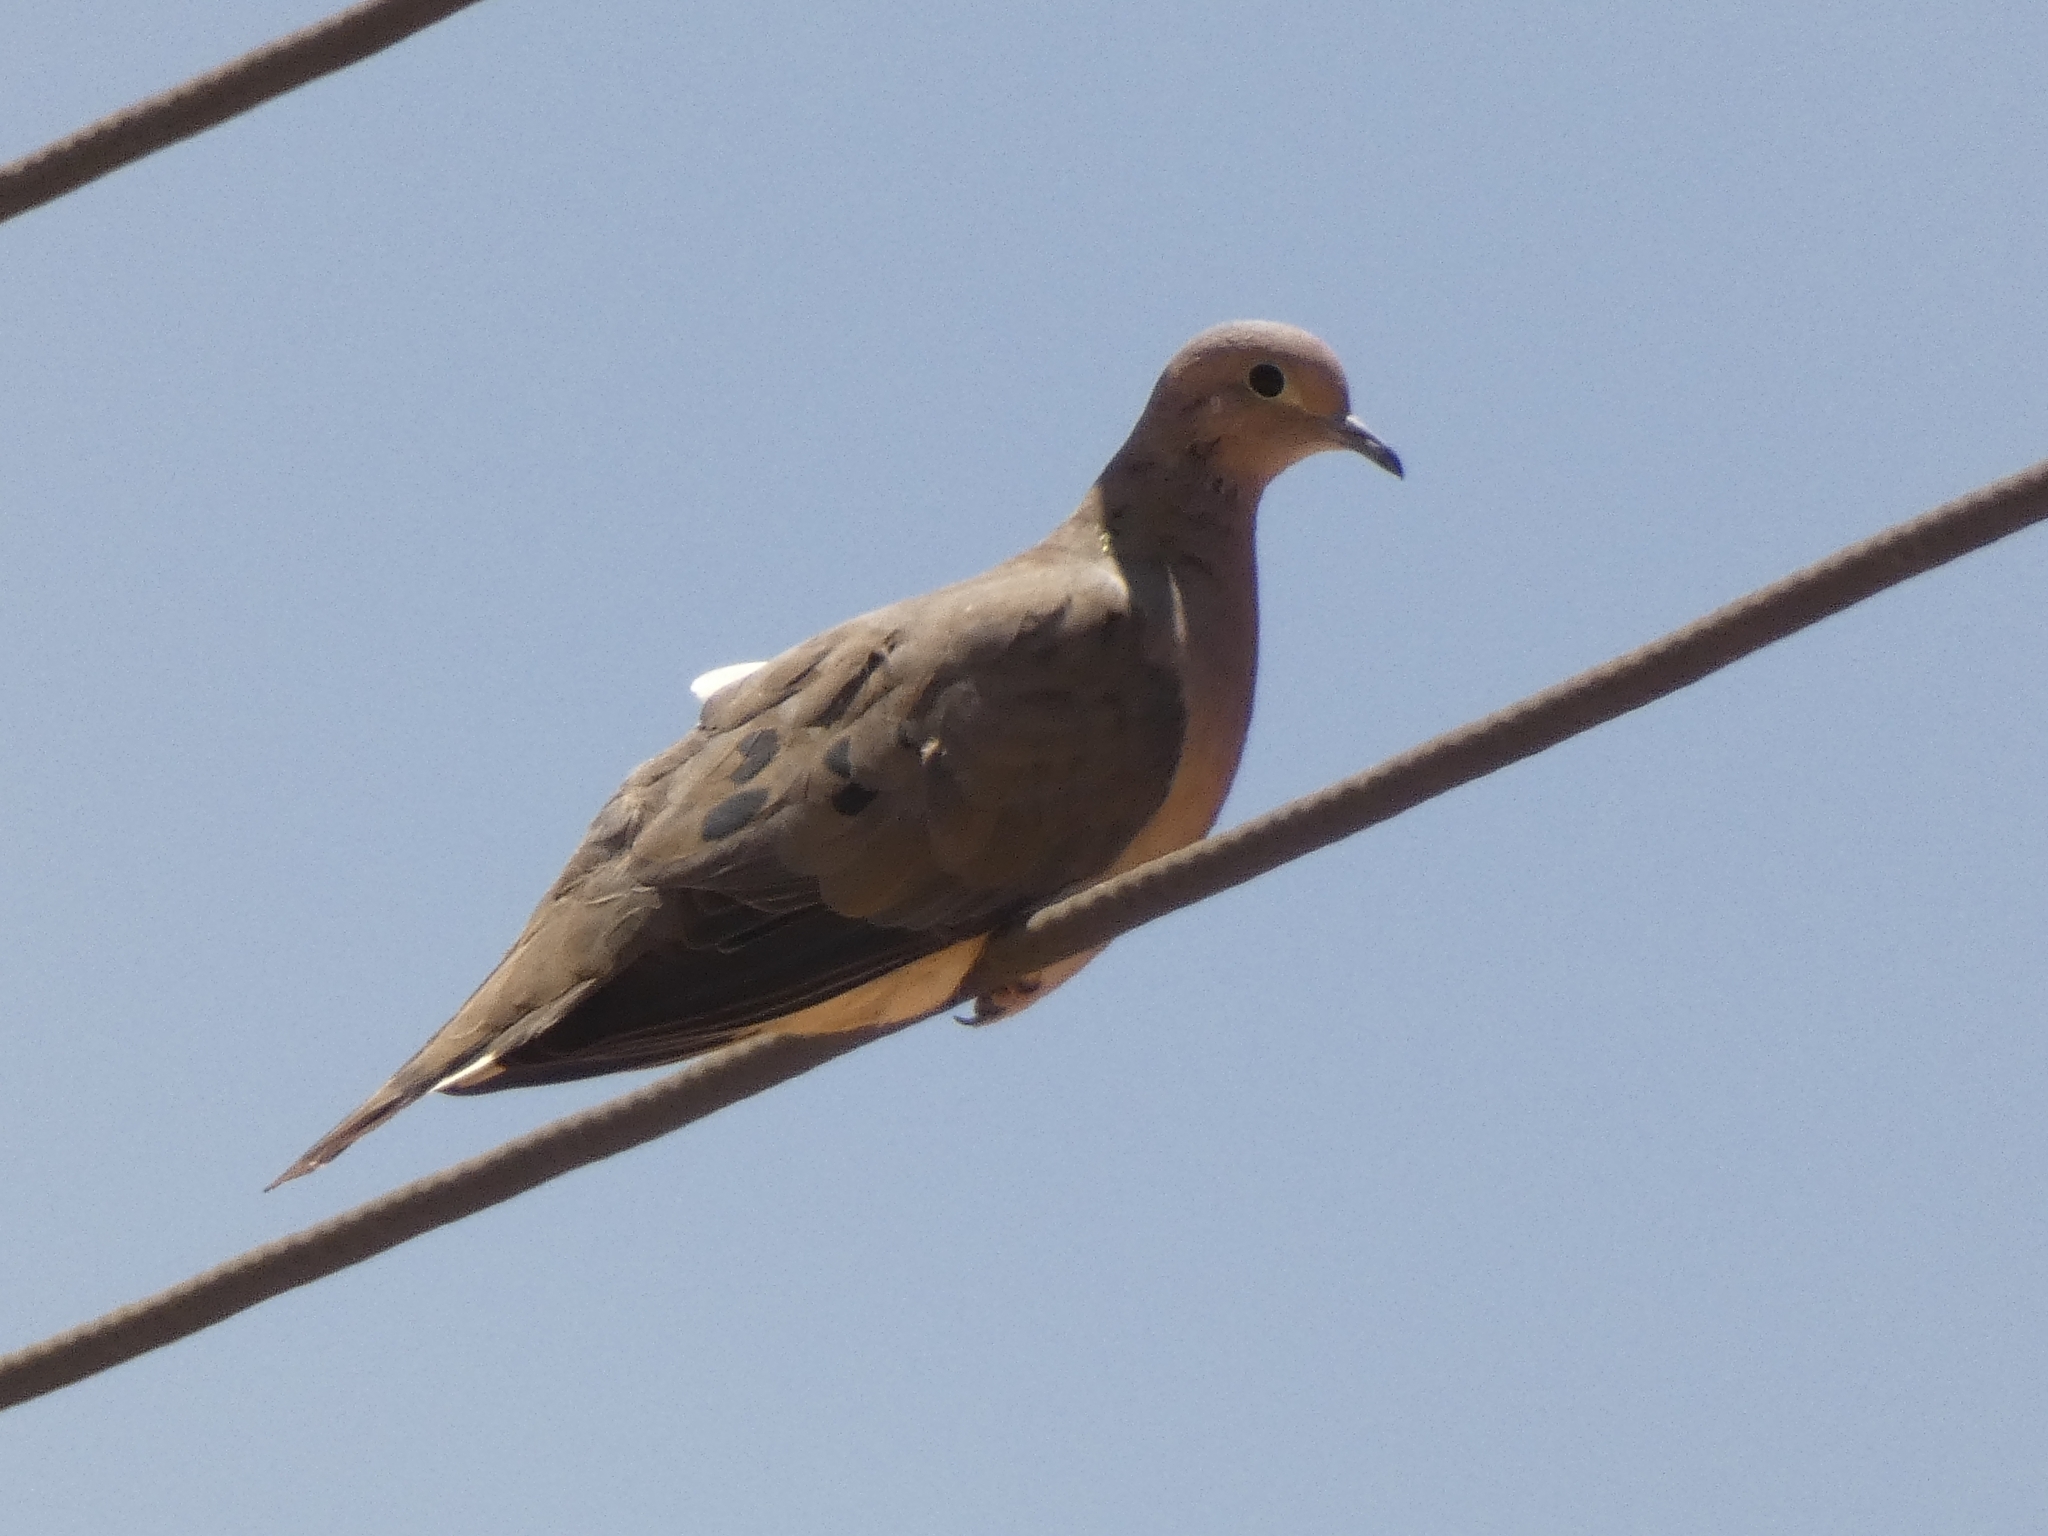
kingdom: Animalia
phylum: Chordata
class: Aves
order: Columbiformes
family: Columbidae
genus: Zenaida
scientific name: Zenaida auriculata
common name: Eared dove
